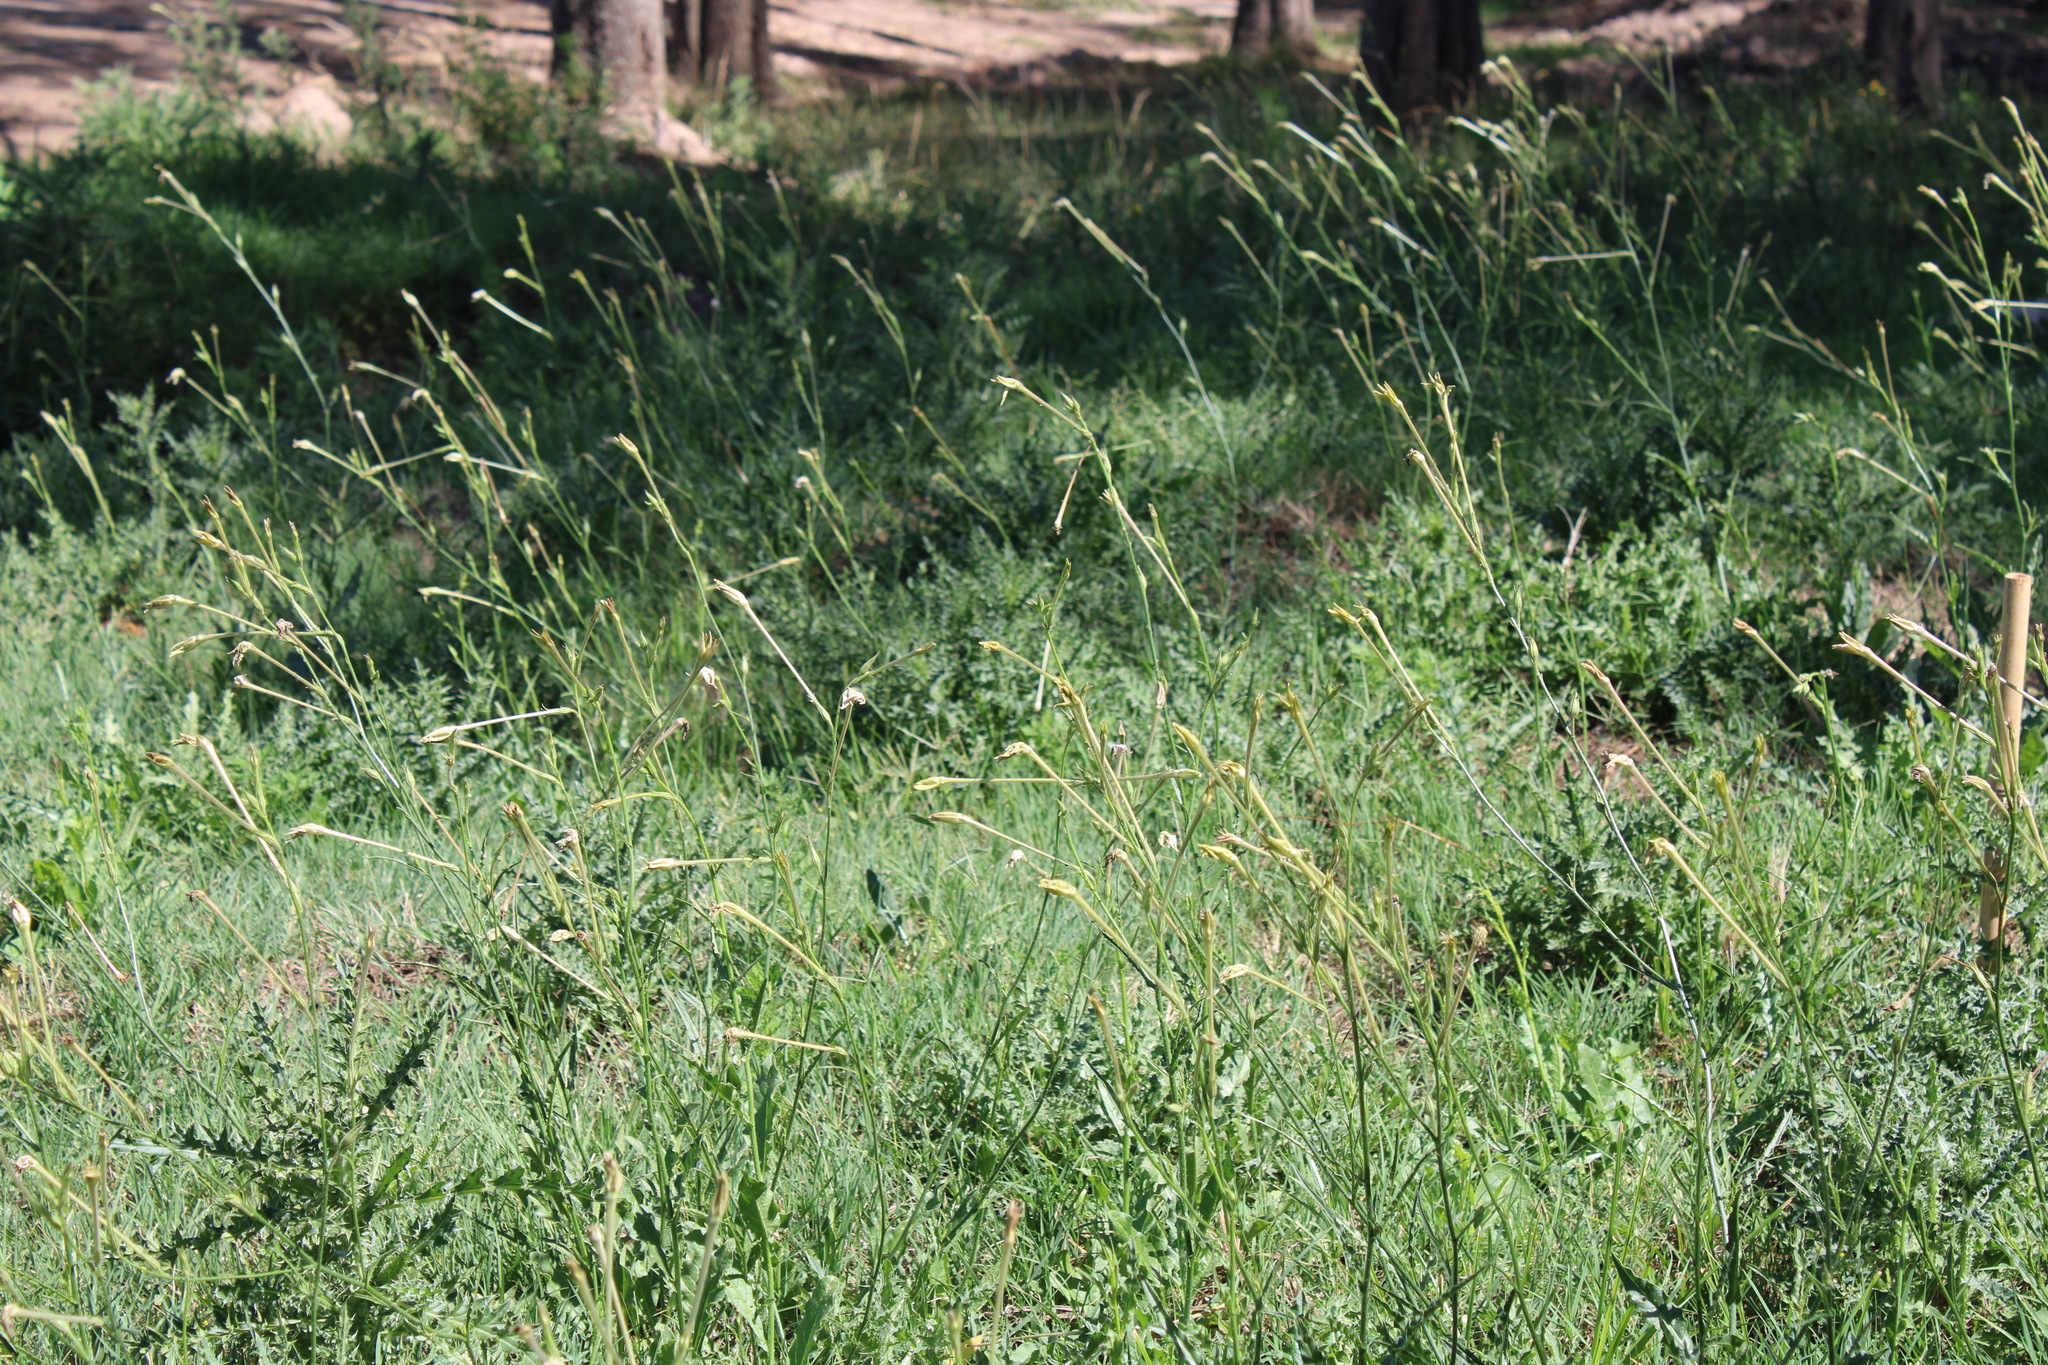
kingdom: Plantae
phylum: Tracheophyta
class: Magnoliopsida
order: Solanales
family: Solanaceae
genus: Nicotiana
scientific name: Nicotiana longiflora
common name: Long-flowered tobacco
